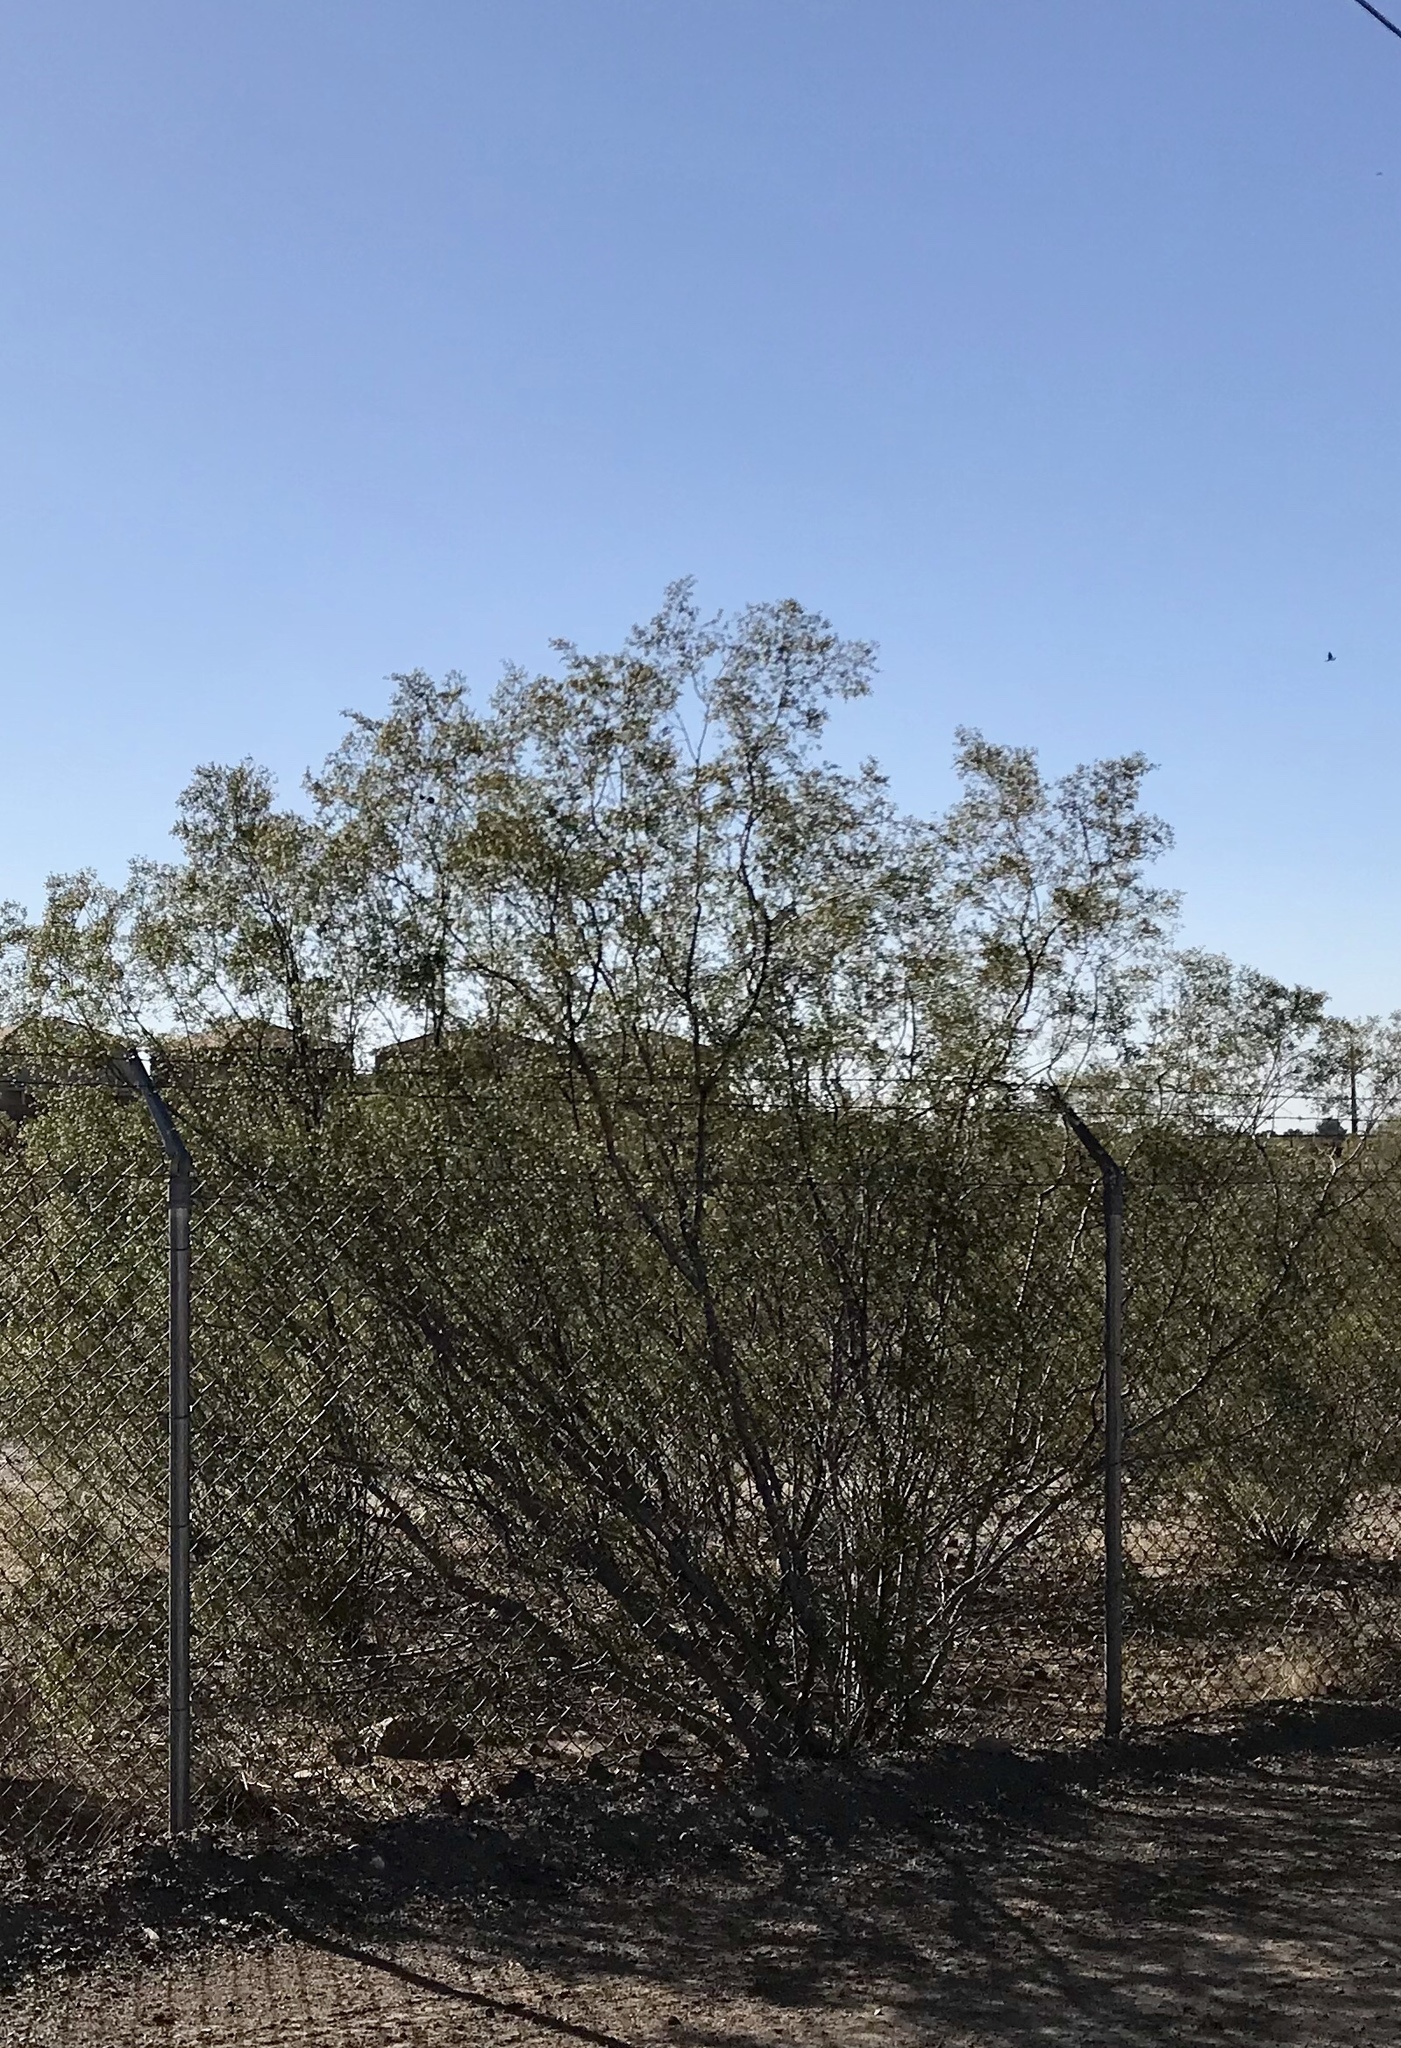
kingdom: Plantae
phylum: Tracheophyta
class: Magnoliopsida
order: Zygophyllales
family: Zygophyllaceae
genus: Larrea
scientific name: Larrea tridentata
